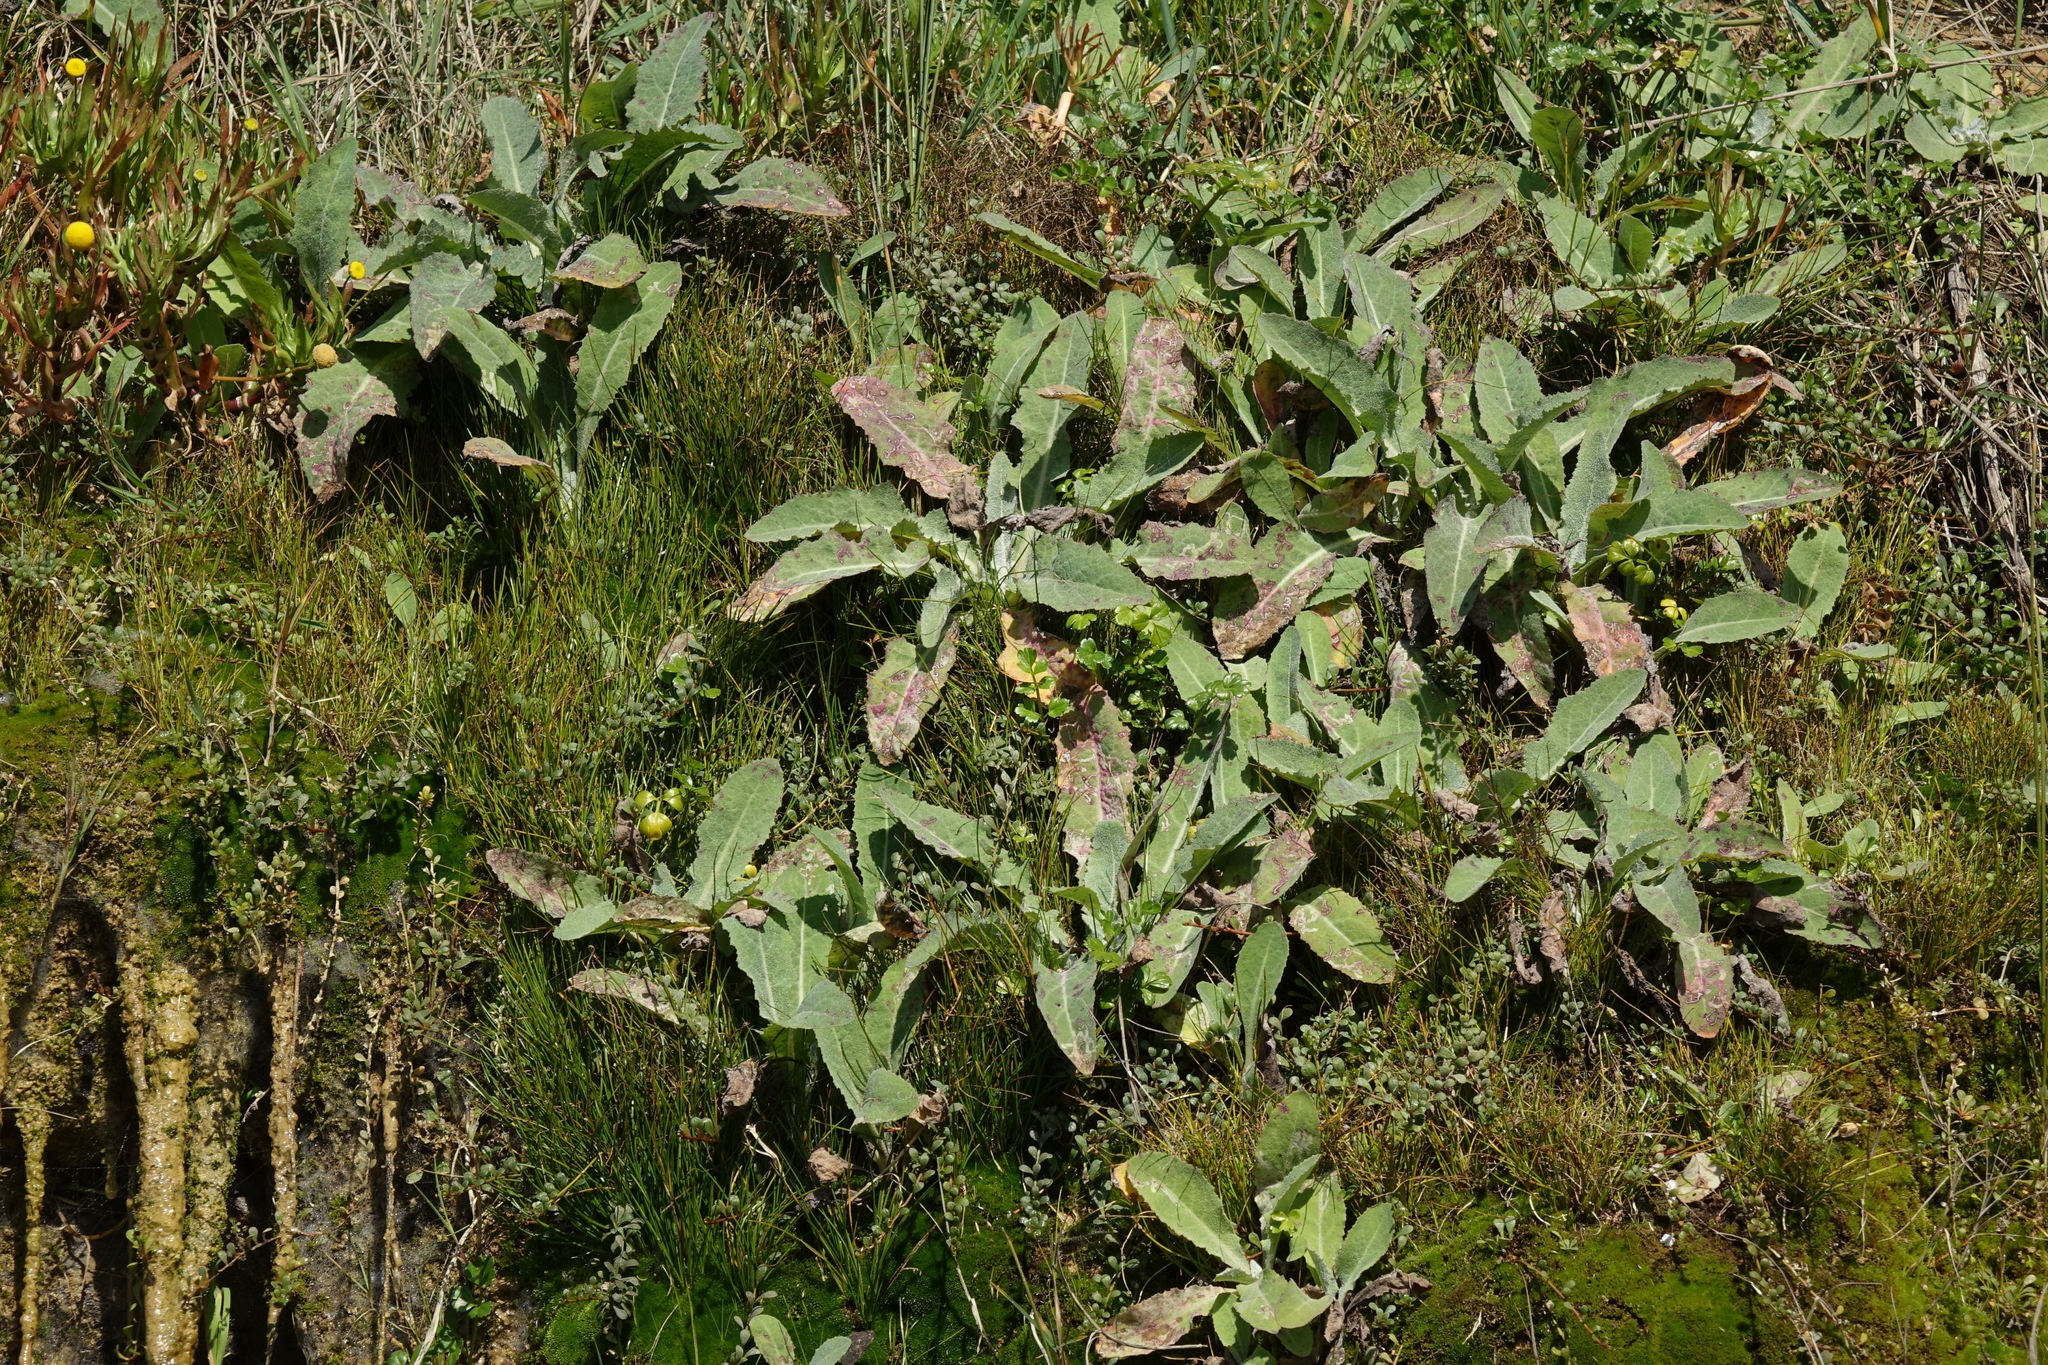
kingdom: Plantae
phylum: Tracheophyta
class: Magnoliopsida
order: Asterales
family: Asteraceae
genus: Sonchus
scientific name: Sonchus kirkii
